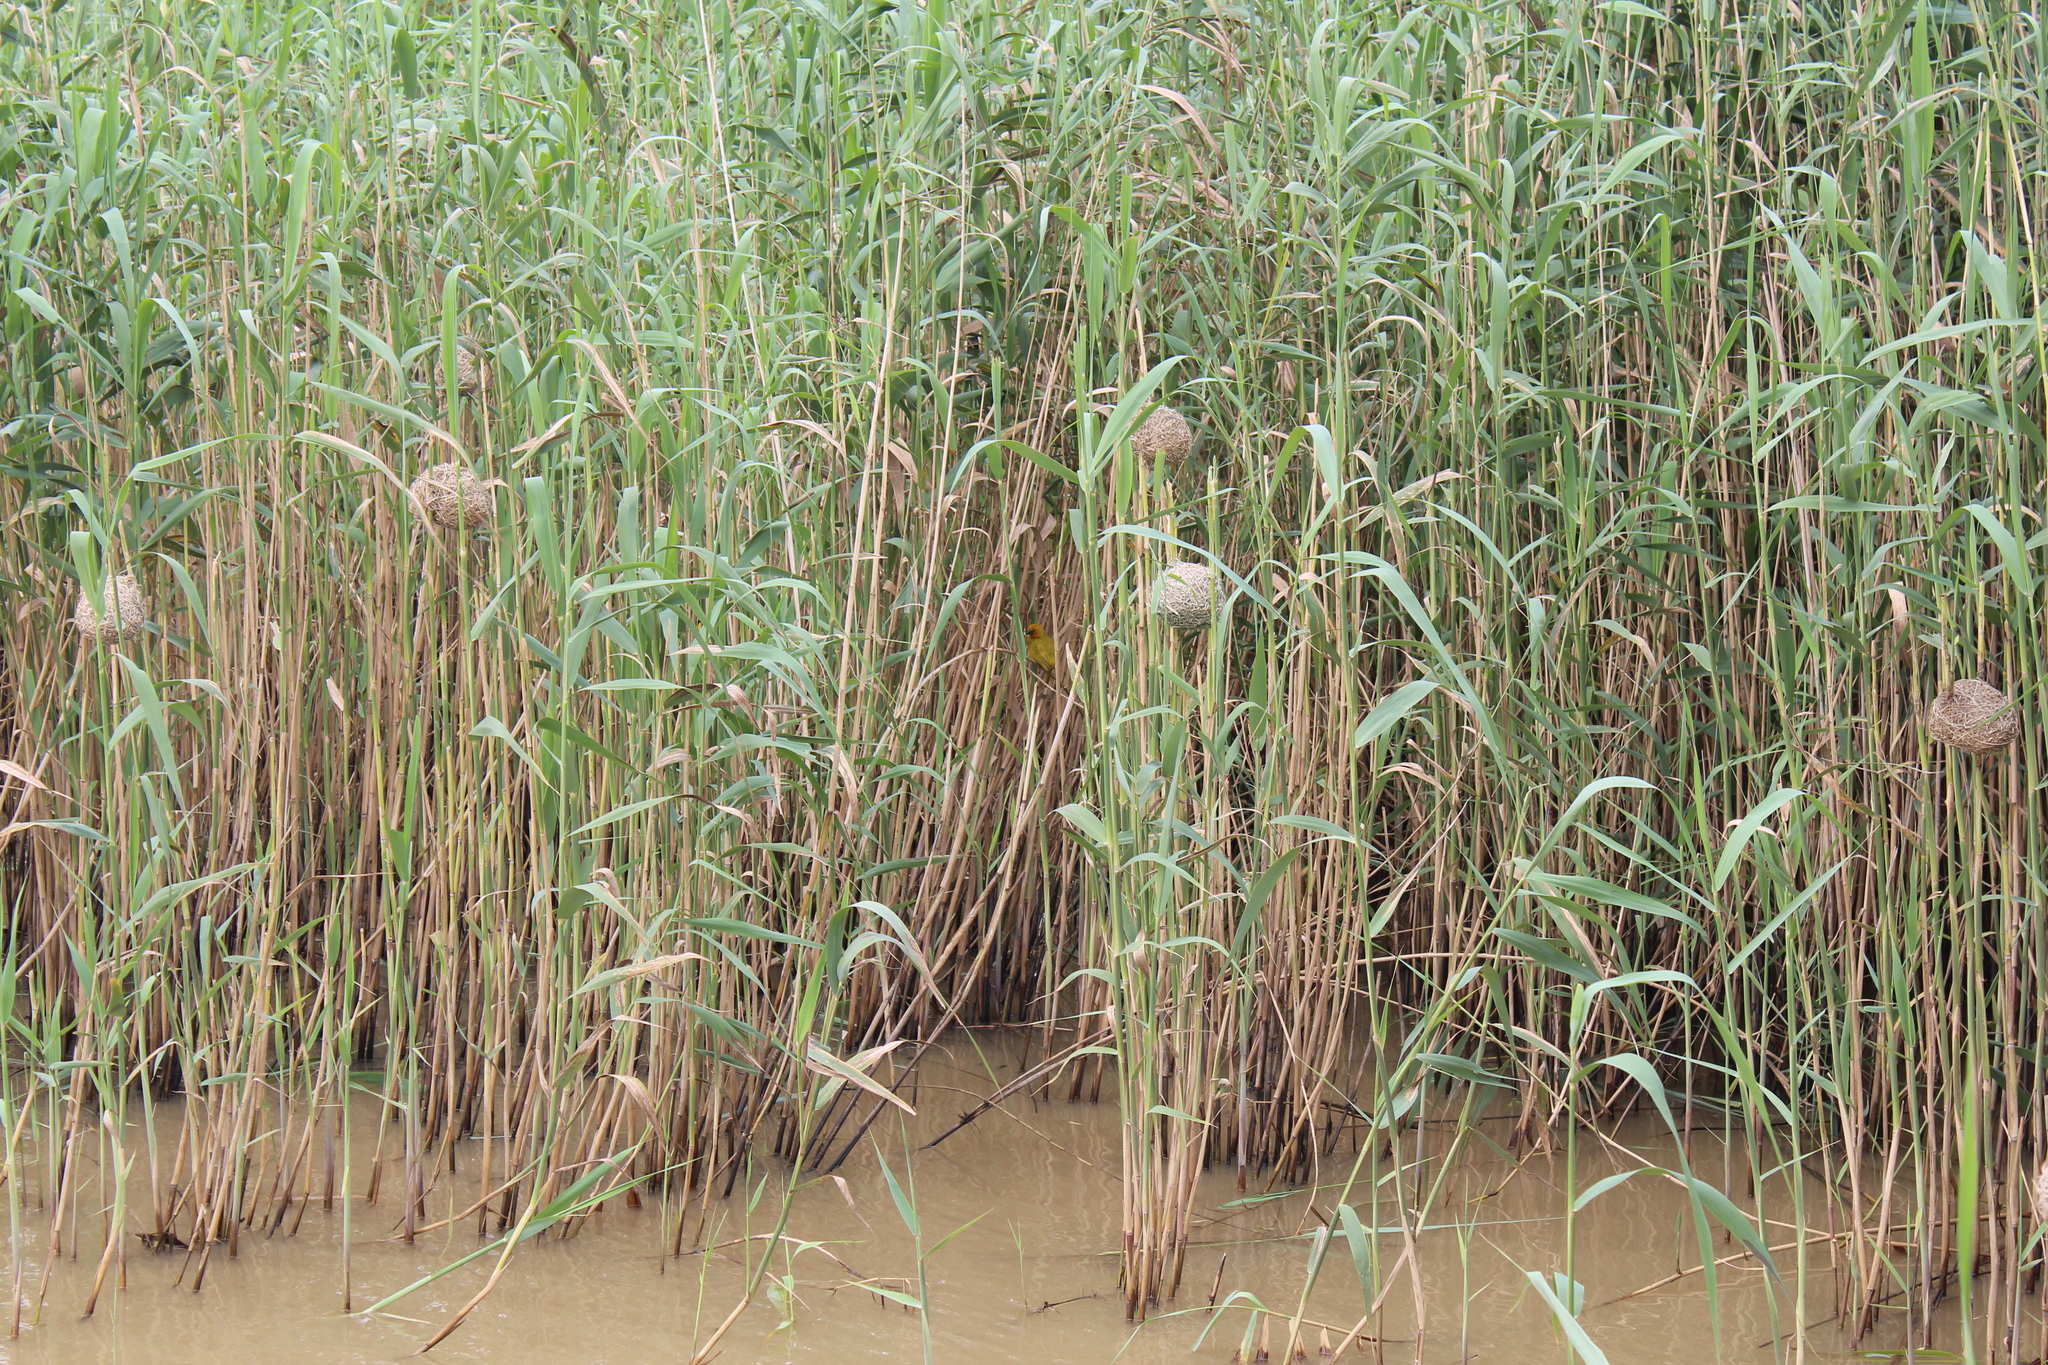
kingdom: Plantae
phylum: Tracheophyta
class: Liliopsida
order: Poales
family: Poaceae
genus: Phragmites
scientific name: Phragmites australis
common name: Common reed
